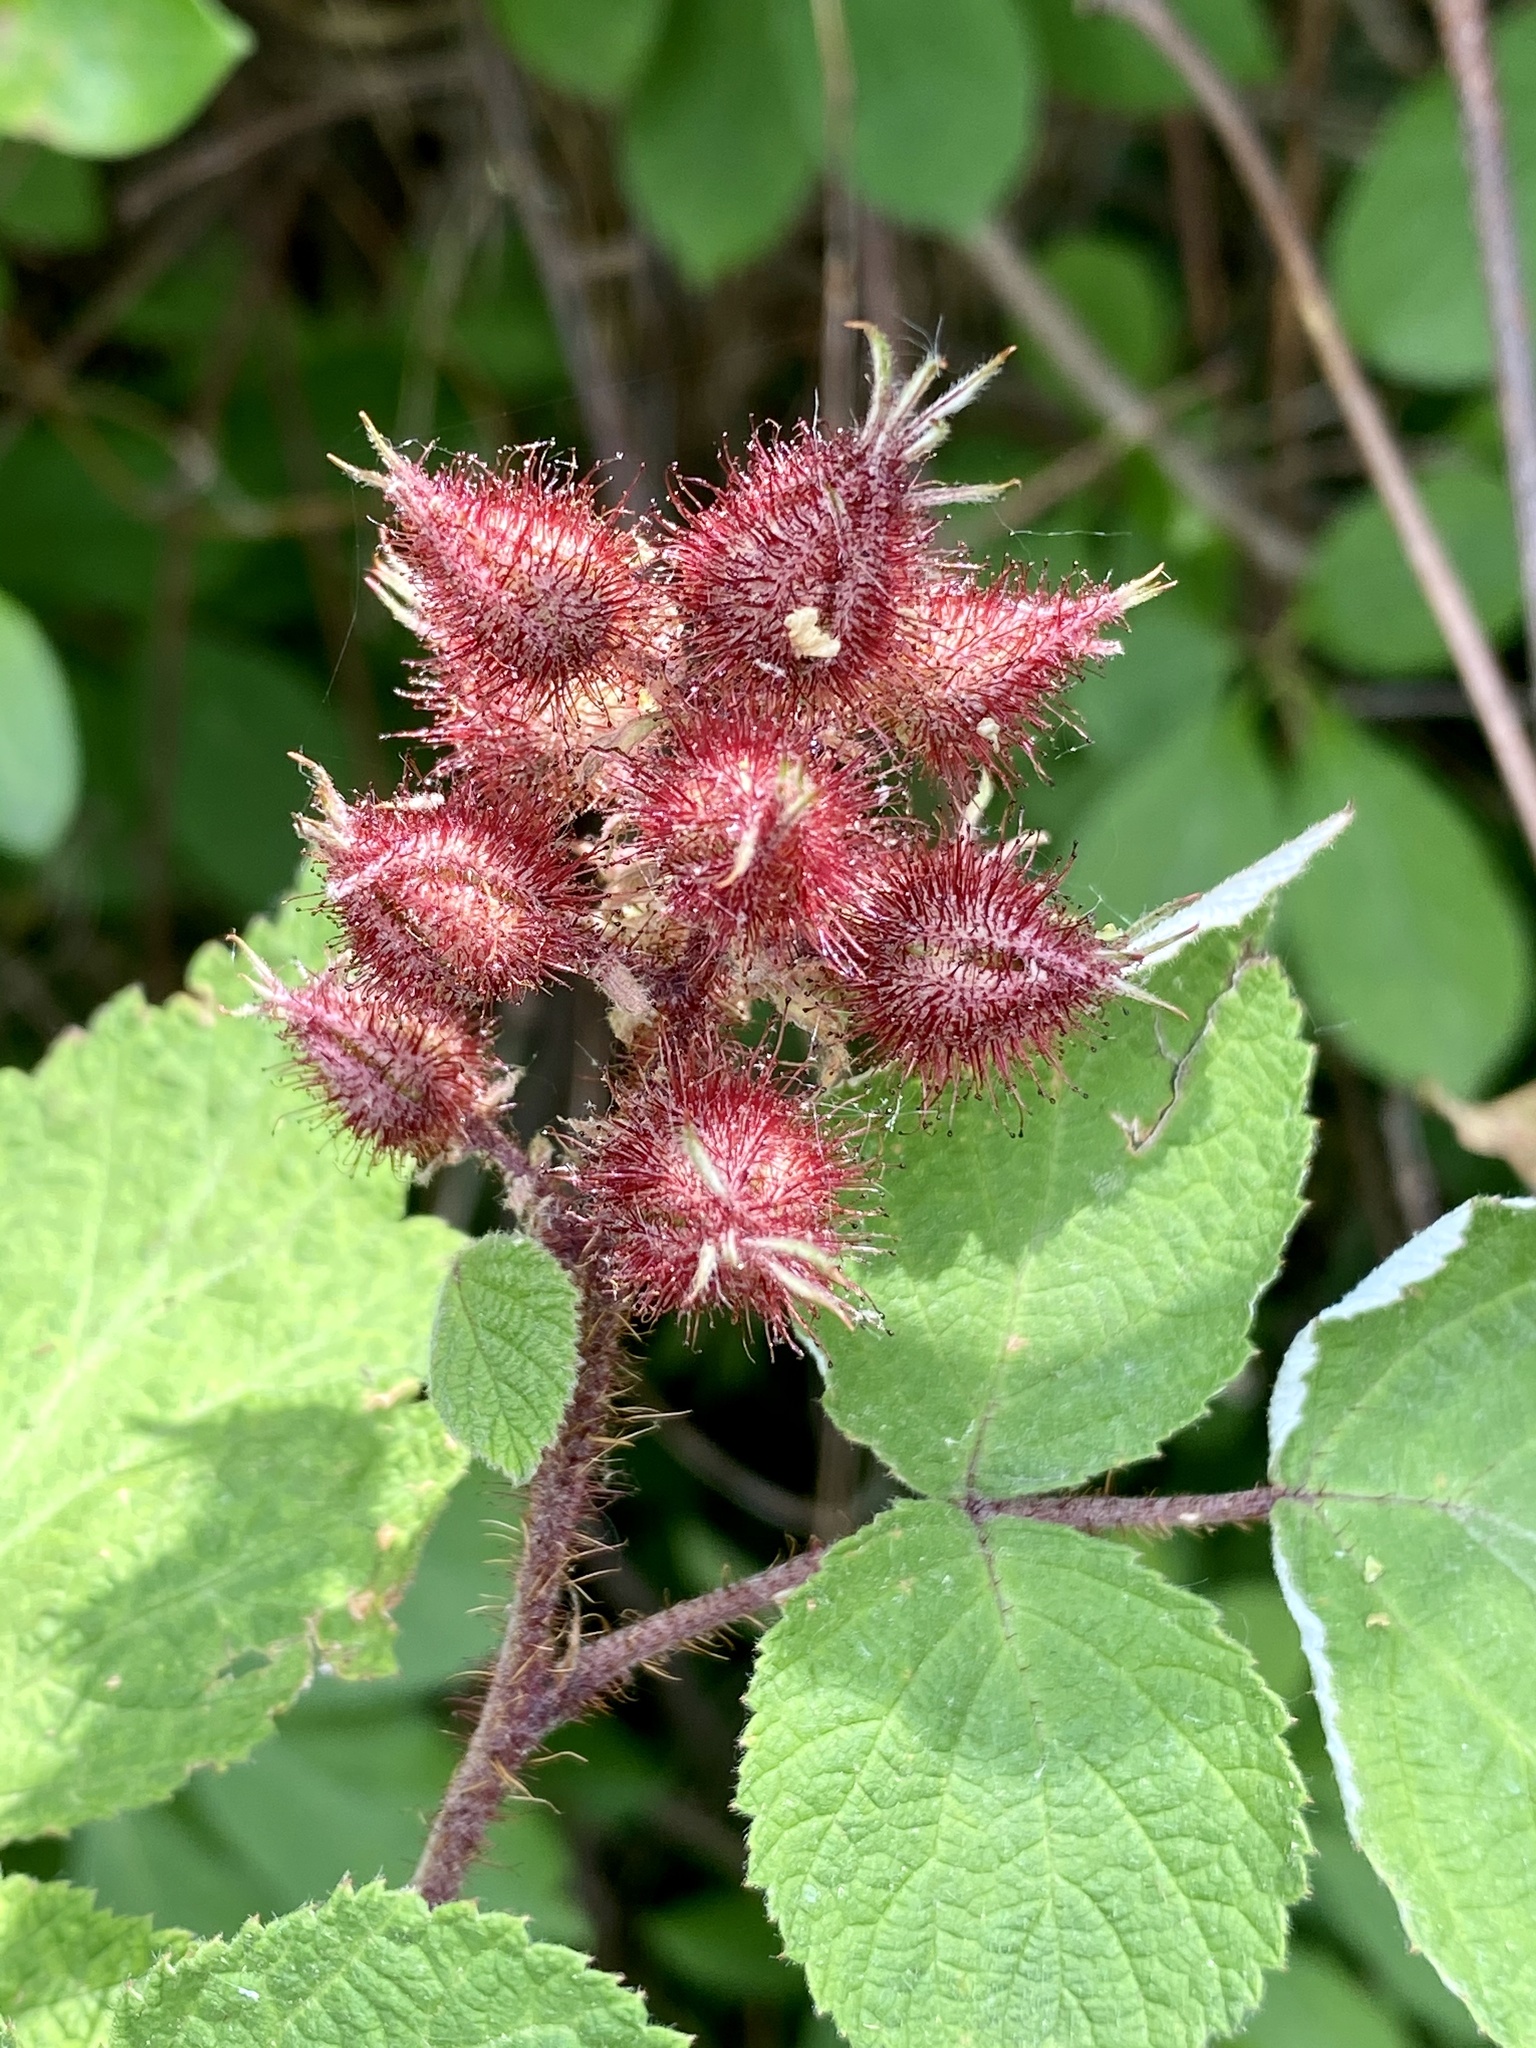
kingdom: Plantae
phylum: Tracheophyta
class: Magnoliopsida
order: Rosales
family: Rosaceae
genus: Rubus
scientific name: Rubus phoenicolasius
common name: Japanese wineberry
